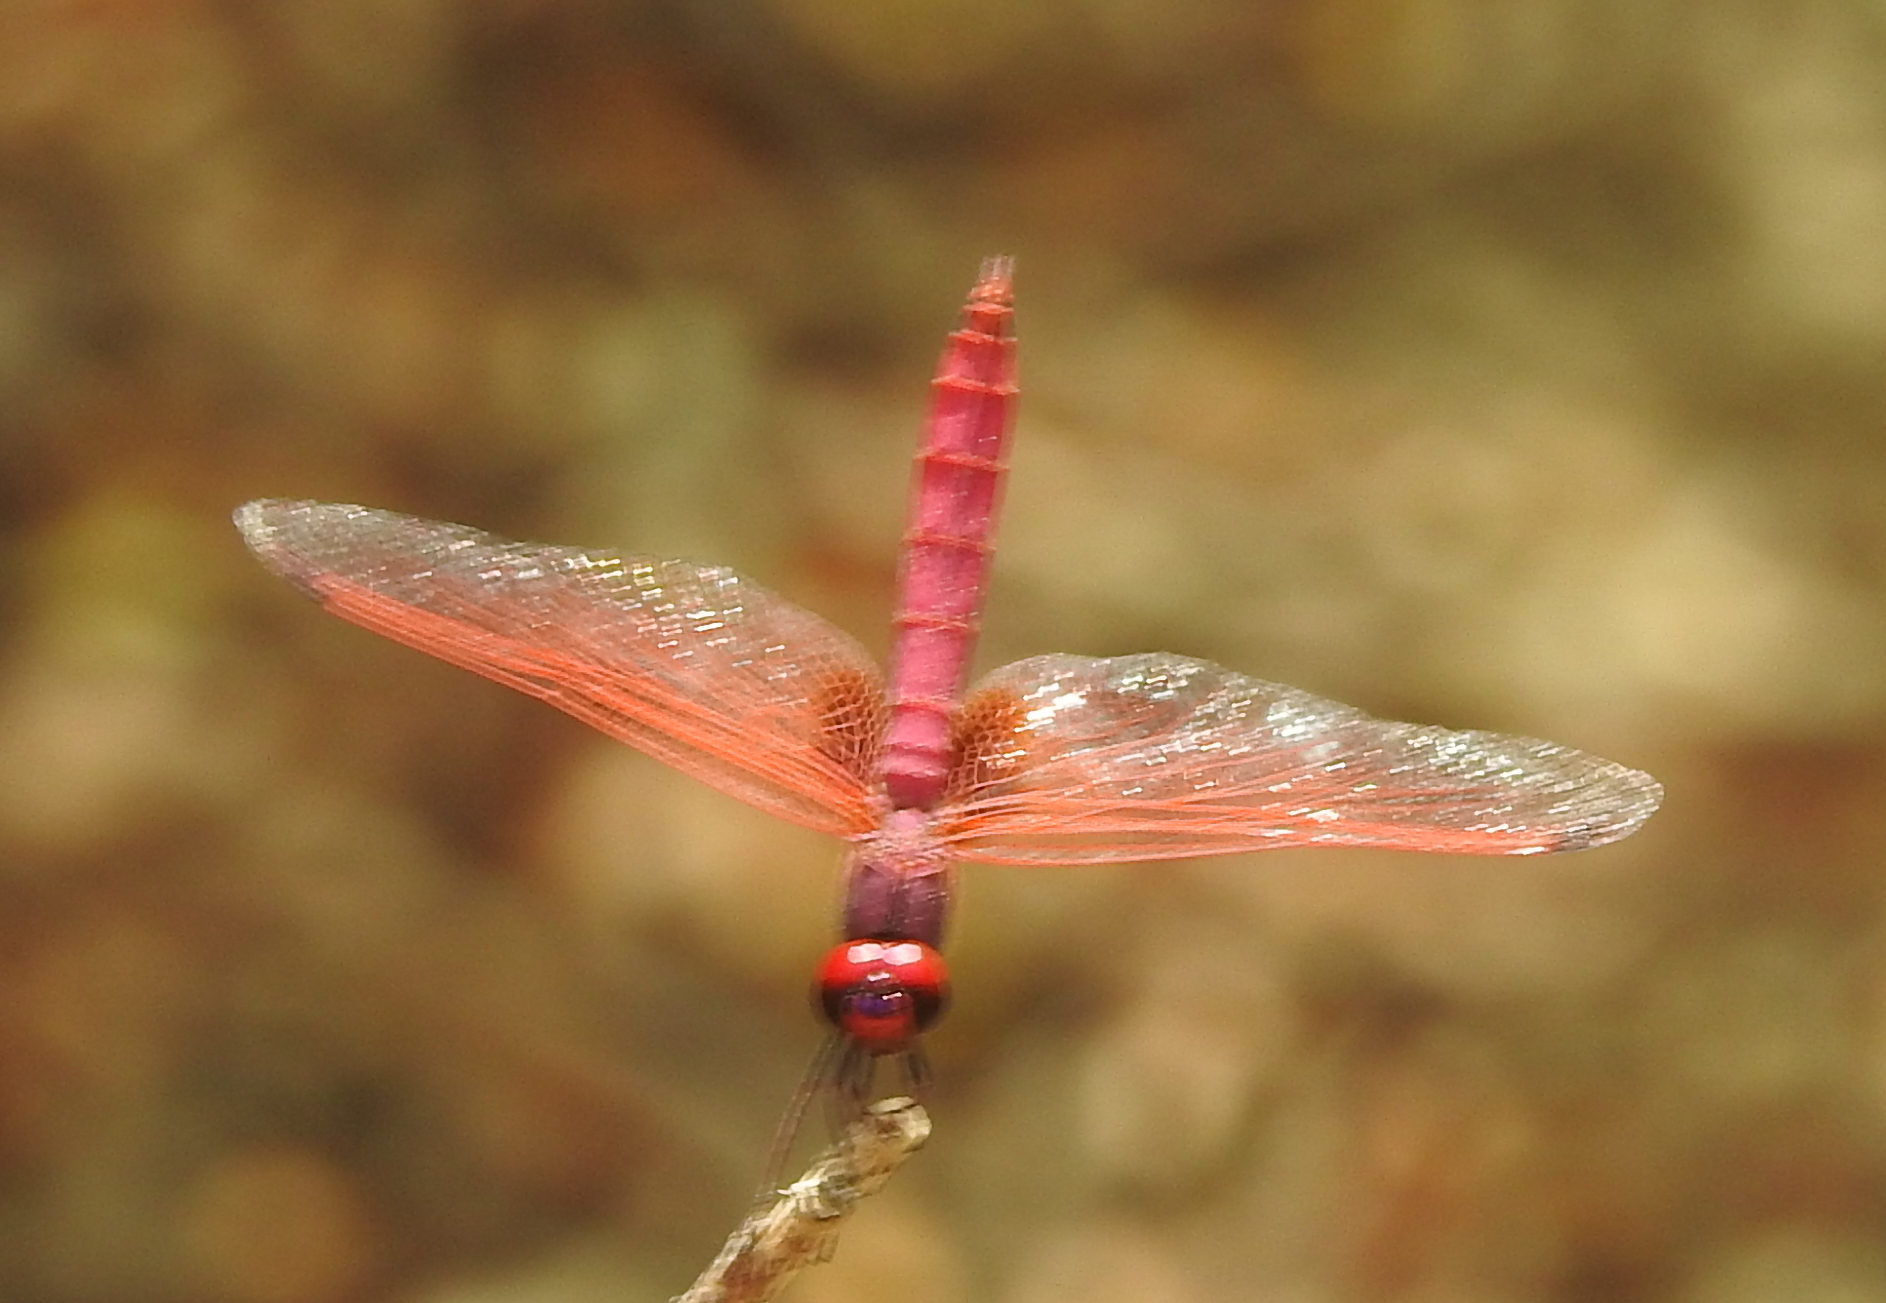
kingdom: Animalia
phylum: Arthropoda
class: Insecta
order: Odonata
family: Libellulidae
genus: Trithemis
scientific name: Trithemis aurora
